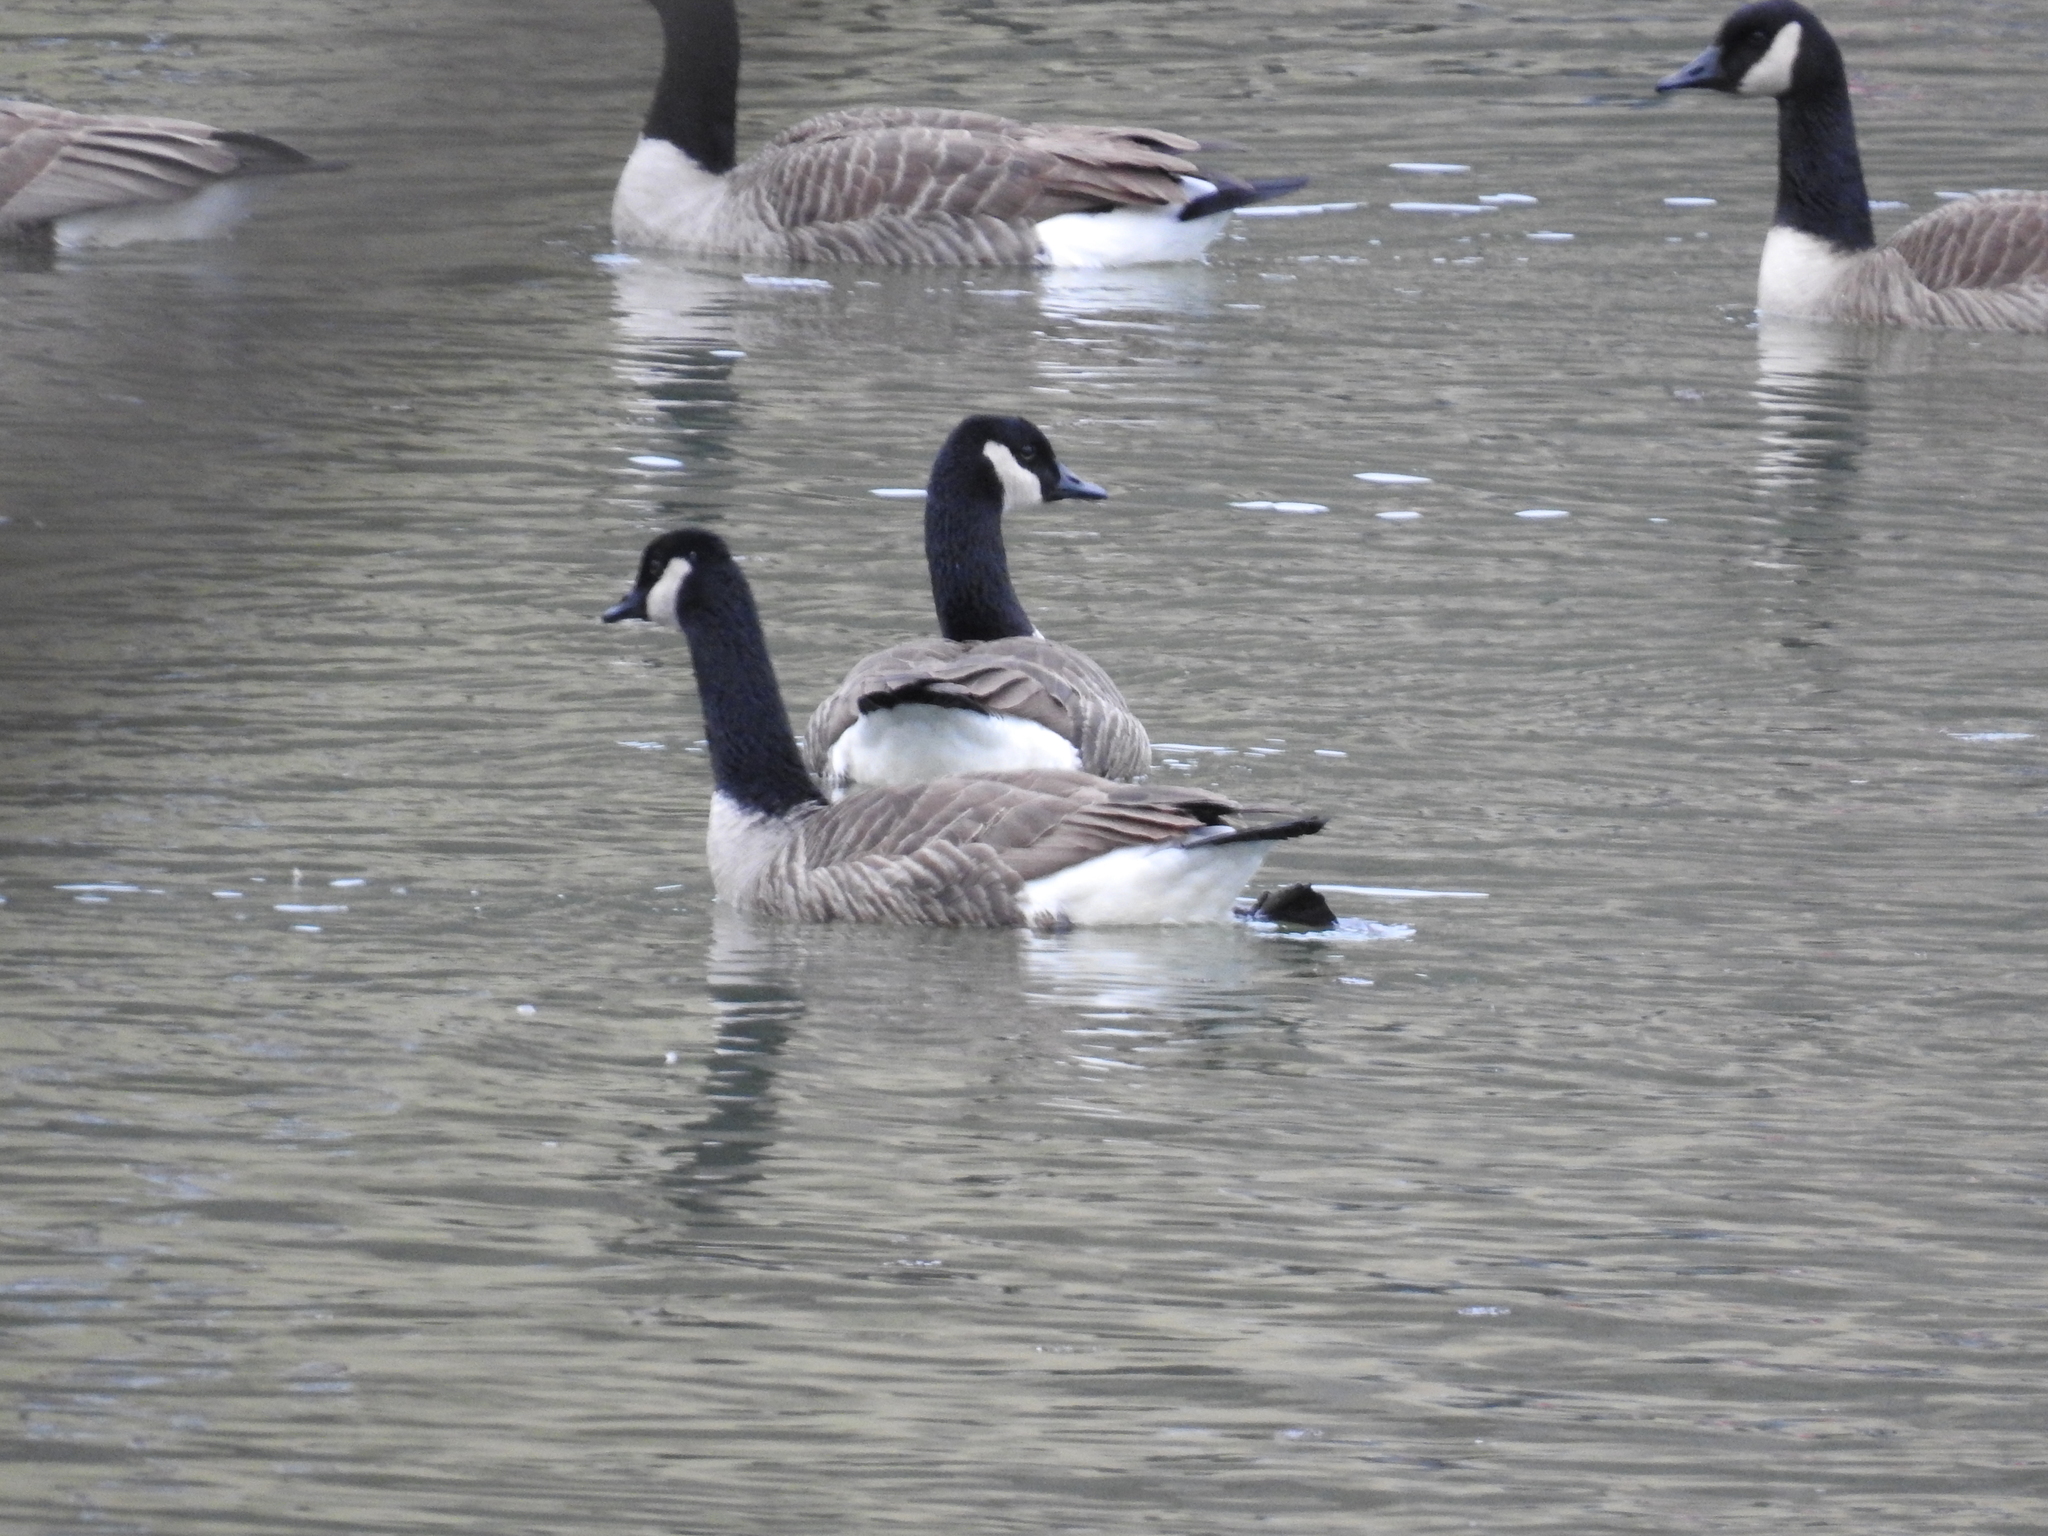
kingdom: Animalia
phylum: Chordata
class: Aves
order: Anseriformes
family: Anatidae
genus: Branta
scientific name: Branta canadensis
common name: Canada goose
